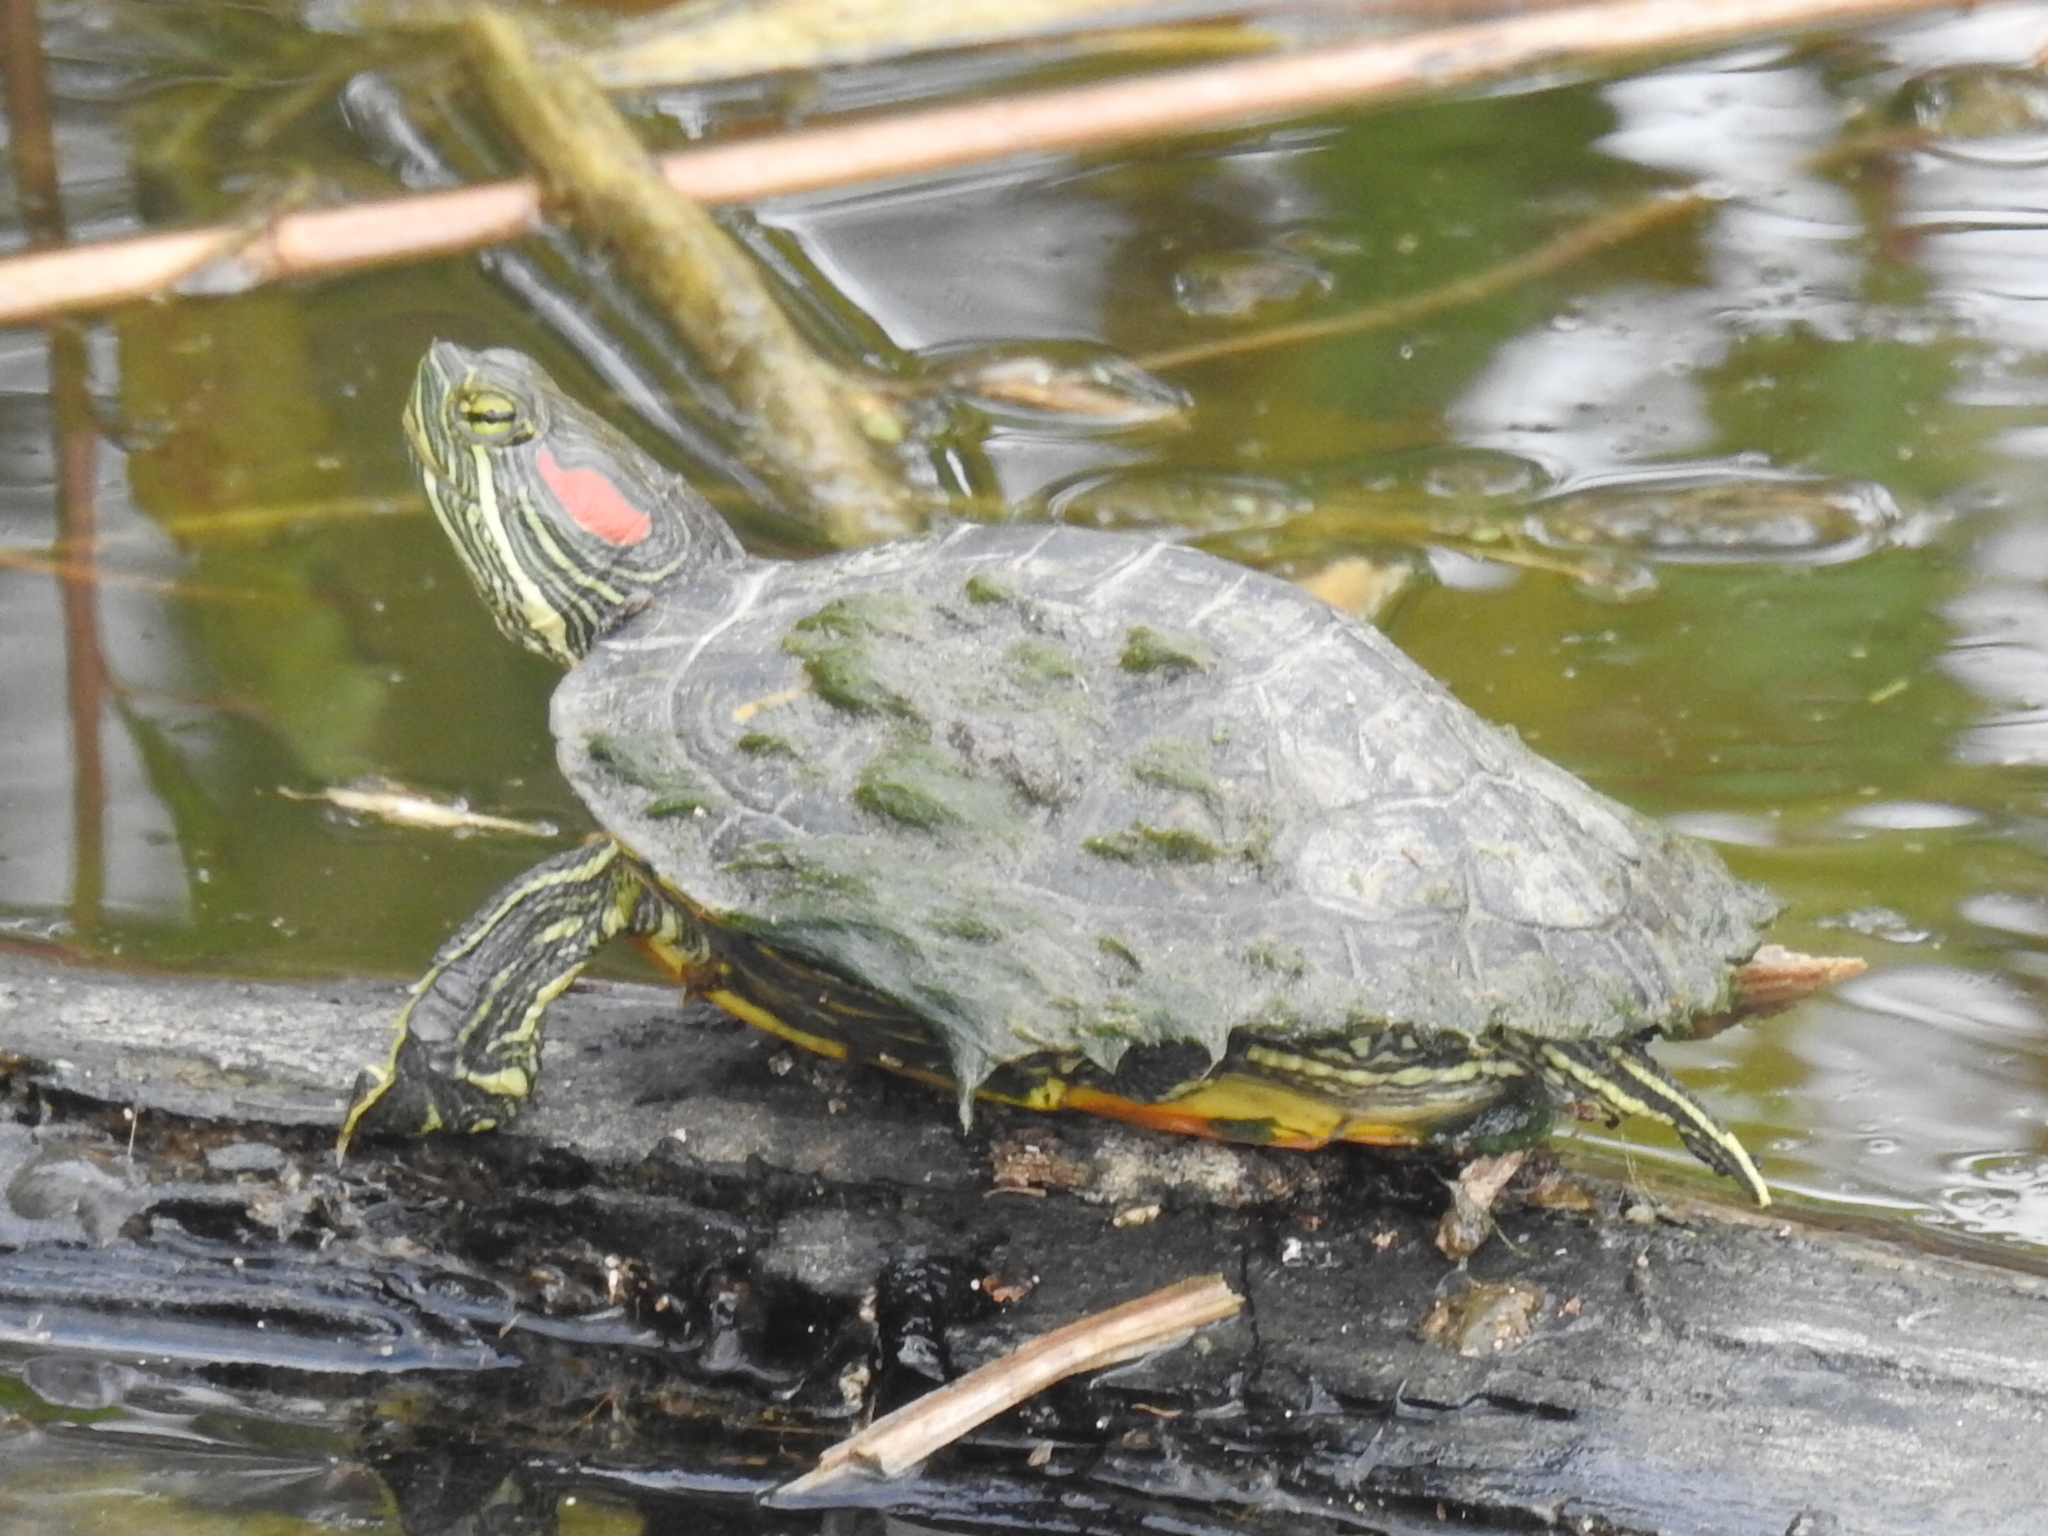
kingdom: Animalia
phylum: Chordata
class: Testudines
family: Emydidae
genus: Trachemys
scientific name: Trachemys scripta
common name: Slider
